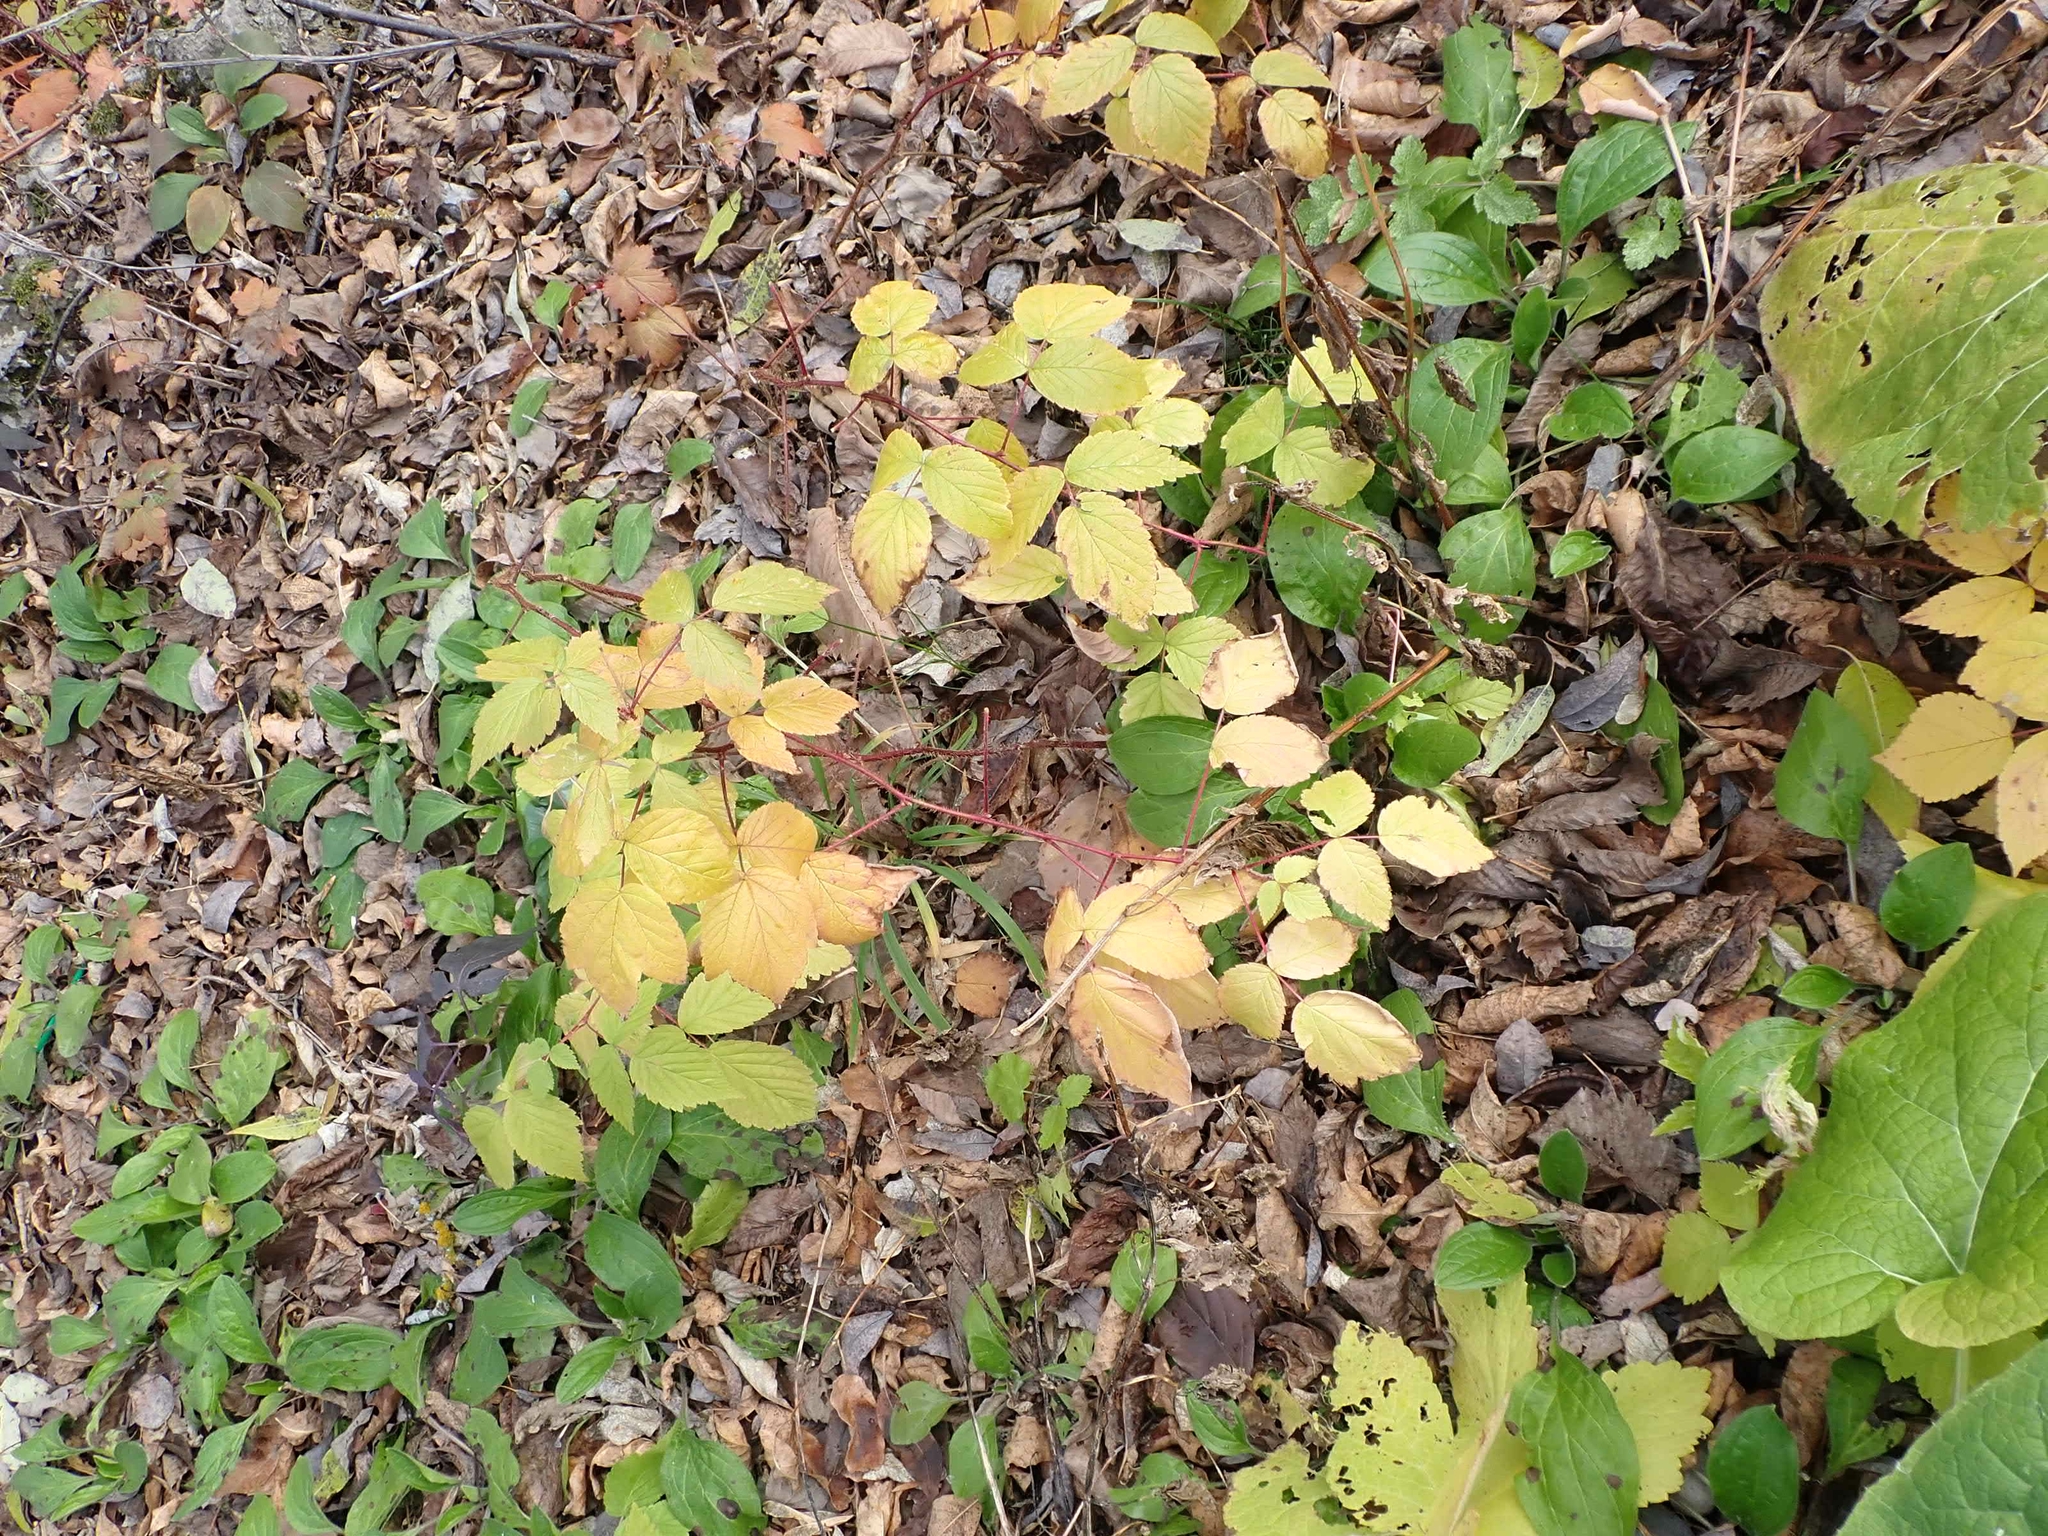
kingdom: Plantae
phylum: Tracheophyta
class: Magnoliopsida
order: Rosales
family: Rosaceae
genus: Rubus
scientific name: Rubus idaeus
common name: Raspberry
